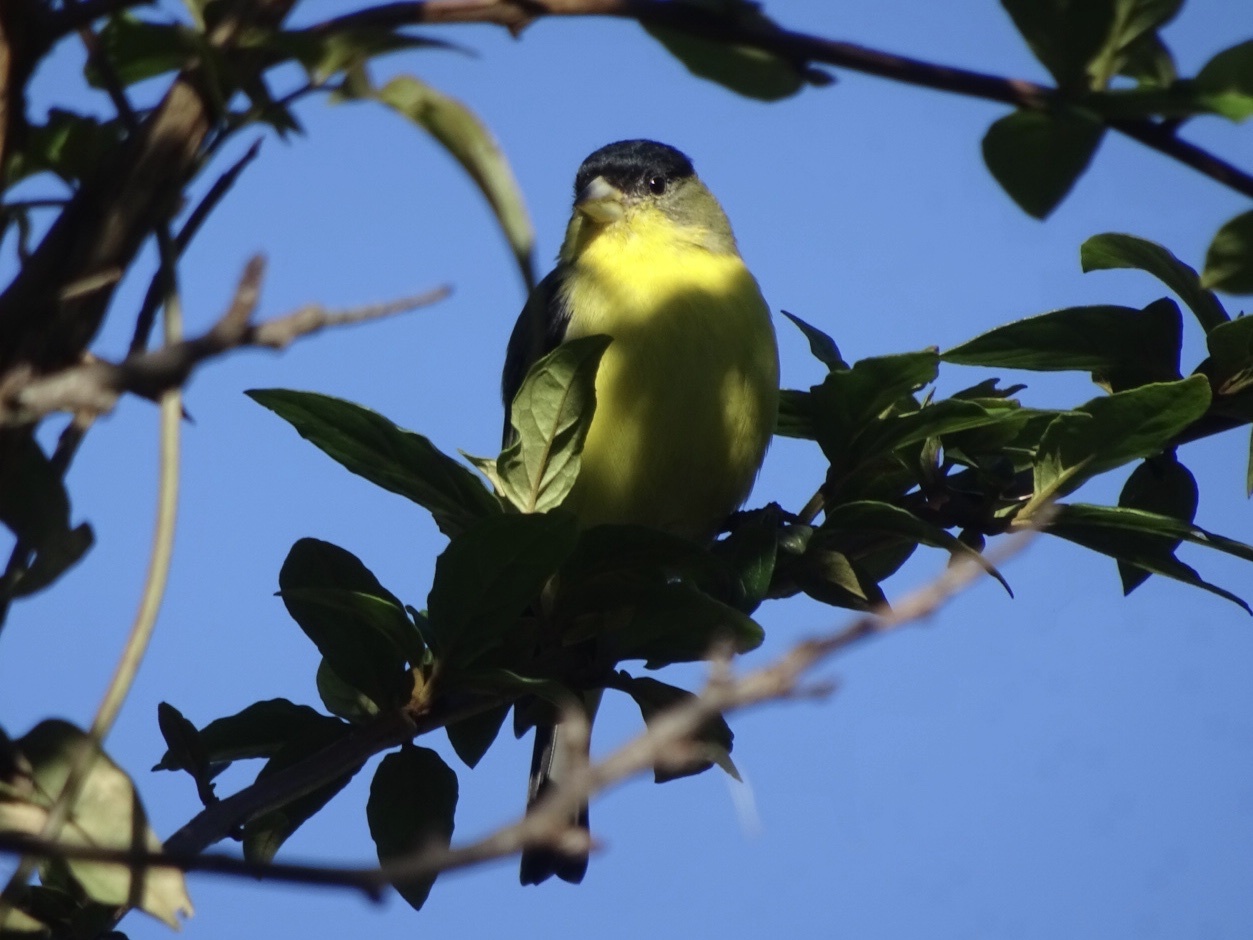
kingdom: Animalia
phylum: Chordata
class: Aves
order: Passeriformes
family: Fringillidae
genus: Spinus
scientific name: Spinus psaltria
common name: Lesser goldfinch
